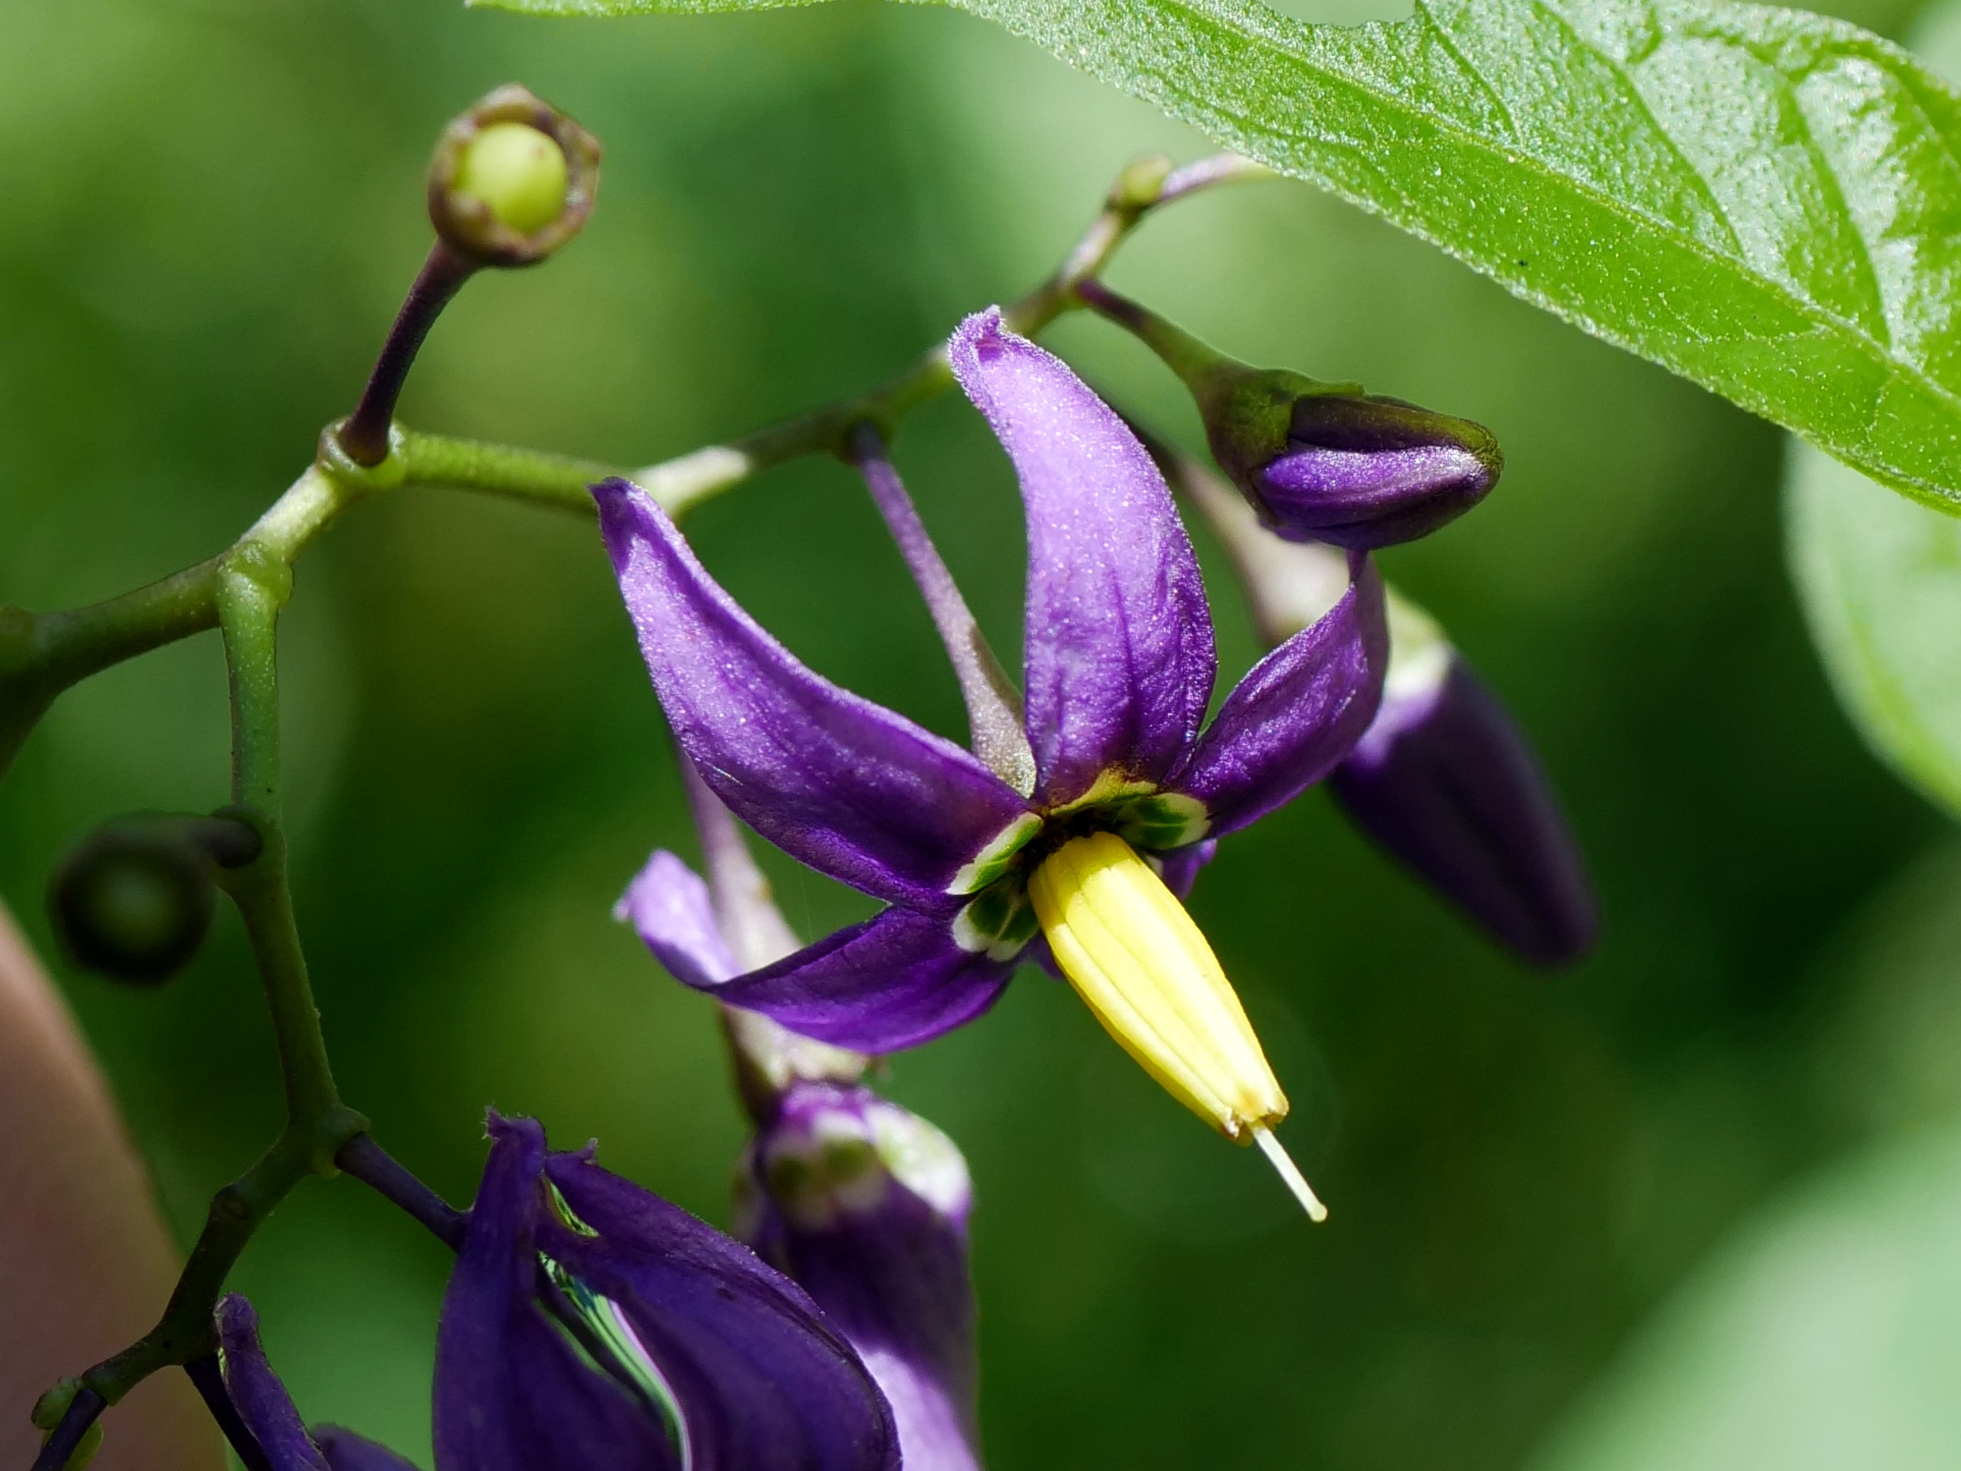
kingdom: Plantae
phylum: Tracheophyta
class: Magnoliopsida
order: Solanales
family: Solanaceae
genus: Solanum
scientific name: Solanum dulcamara
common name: Climbing nightshade
